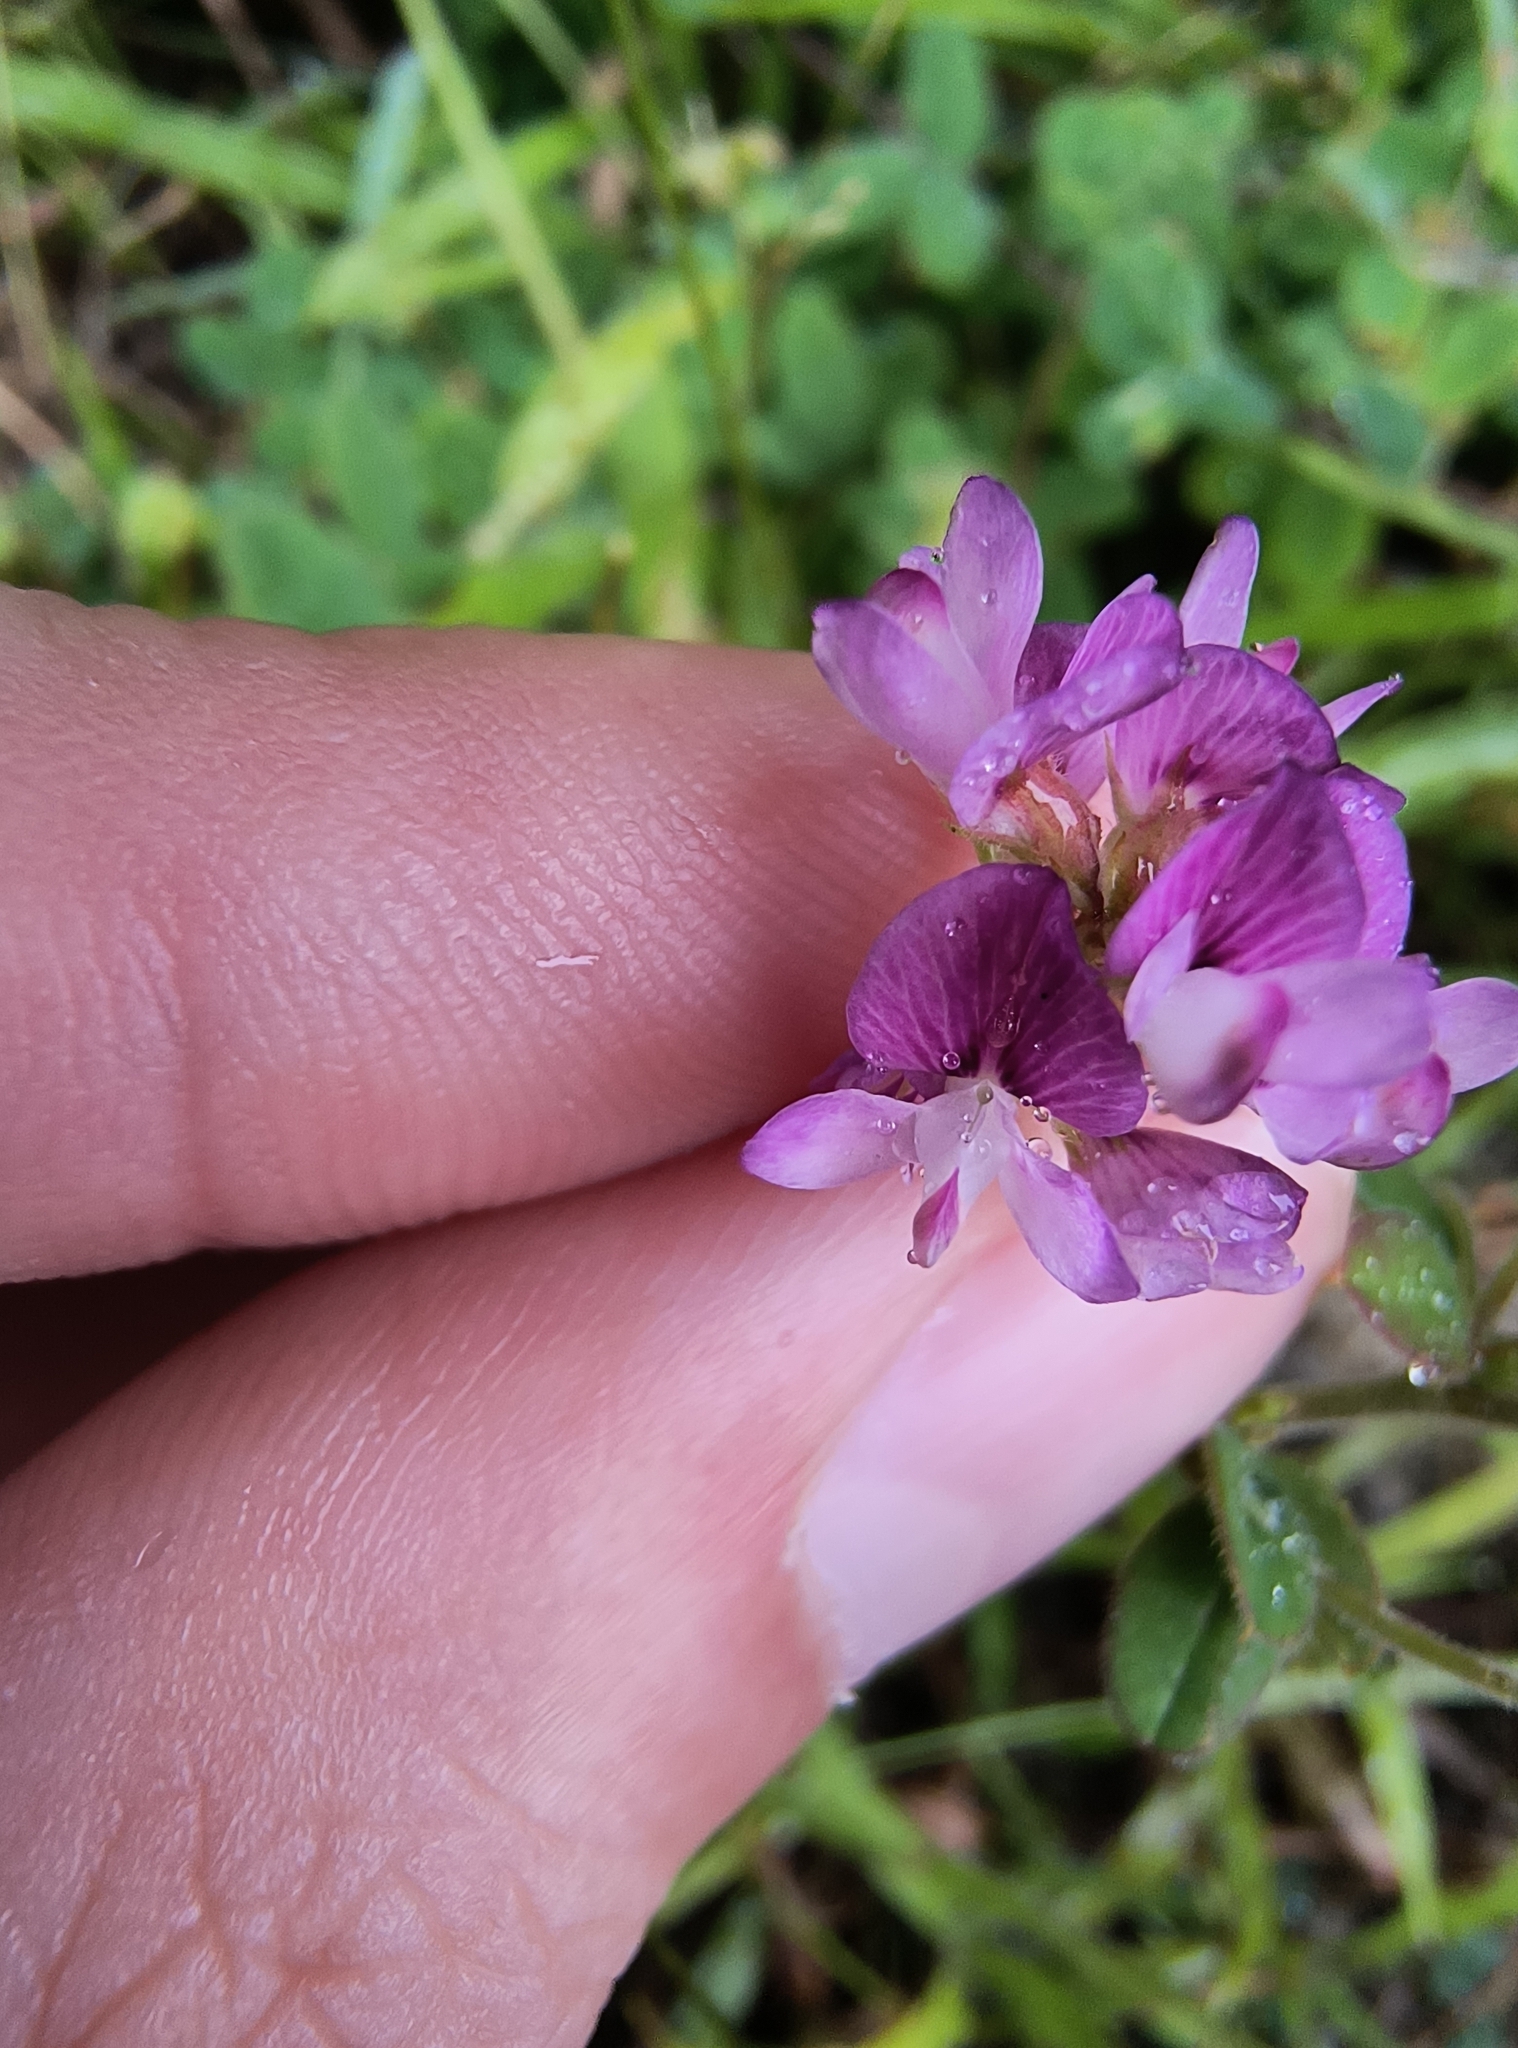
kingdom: Plantae
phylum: Tracheophyta
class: Magnoliopsida
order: Fabales
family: Fabaceae
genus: Lespedeza
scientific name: Lespedeza procumbens
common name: Downy trailing bush-clover
